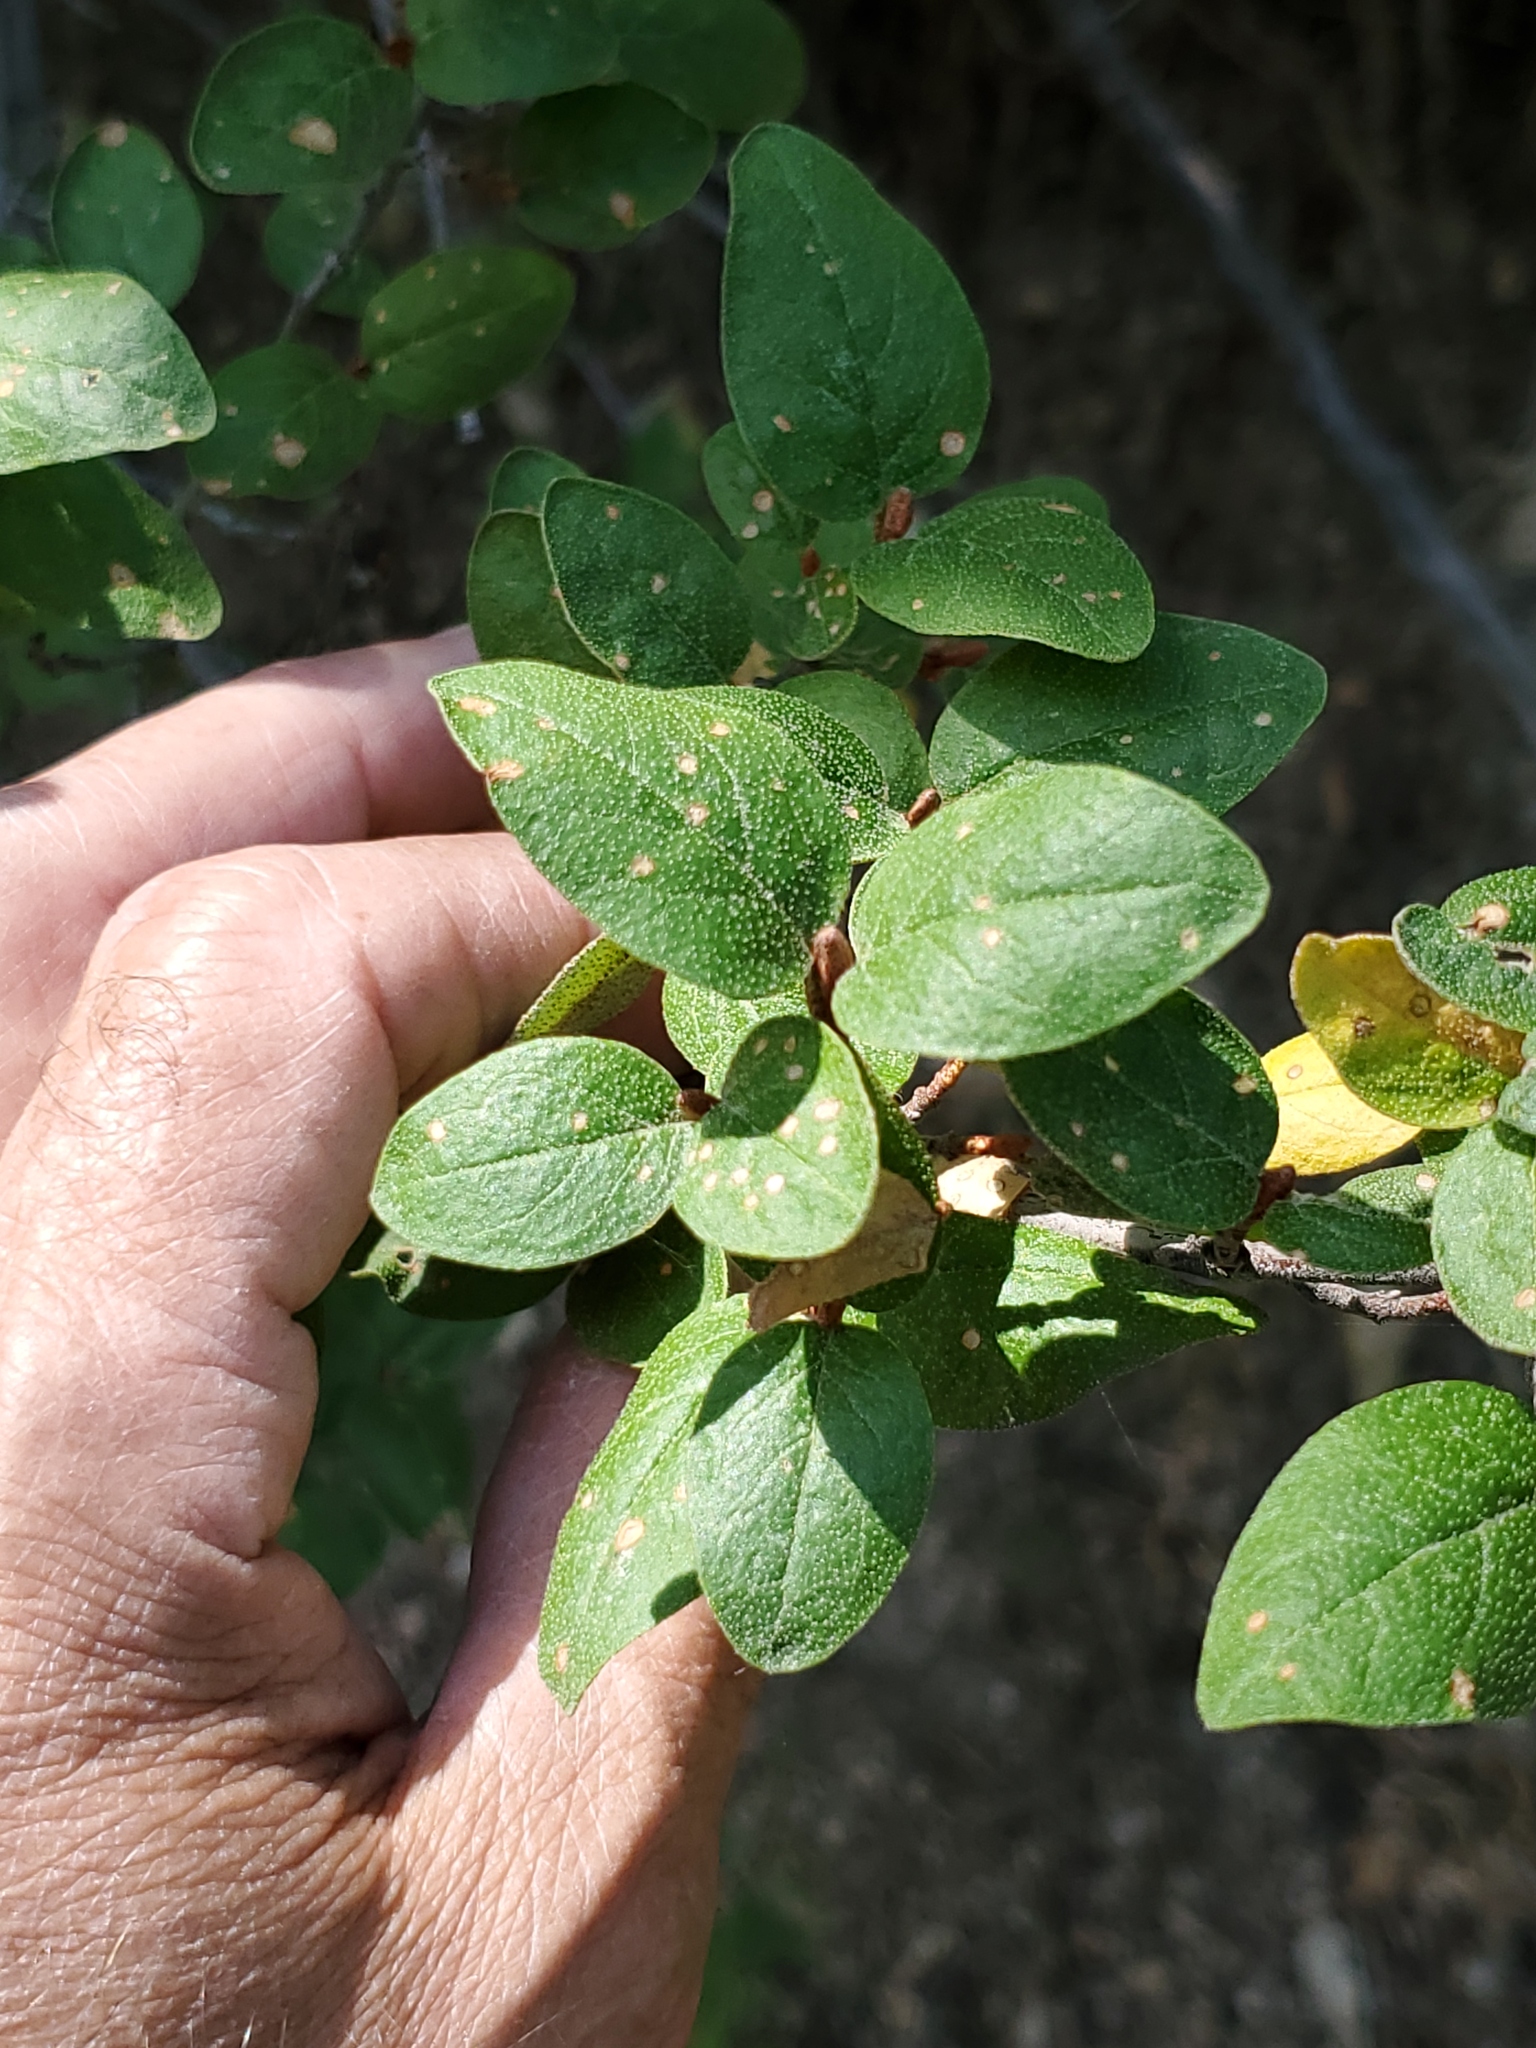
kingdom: Plantae
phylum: Tracheophyta
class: Magnoliopsida
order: Rosales
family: Elaeagnaceae
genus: Shepherdia
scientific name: Shepherdia canadensis
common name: Soapberry
